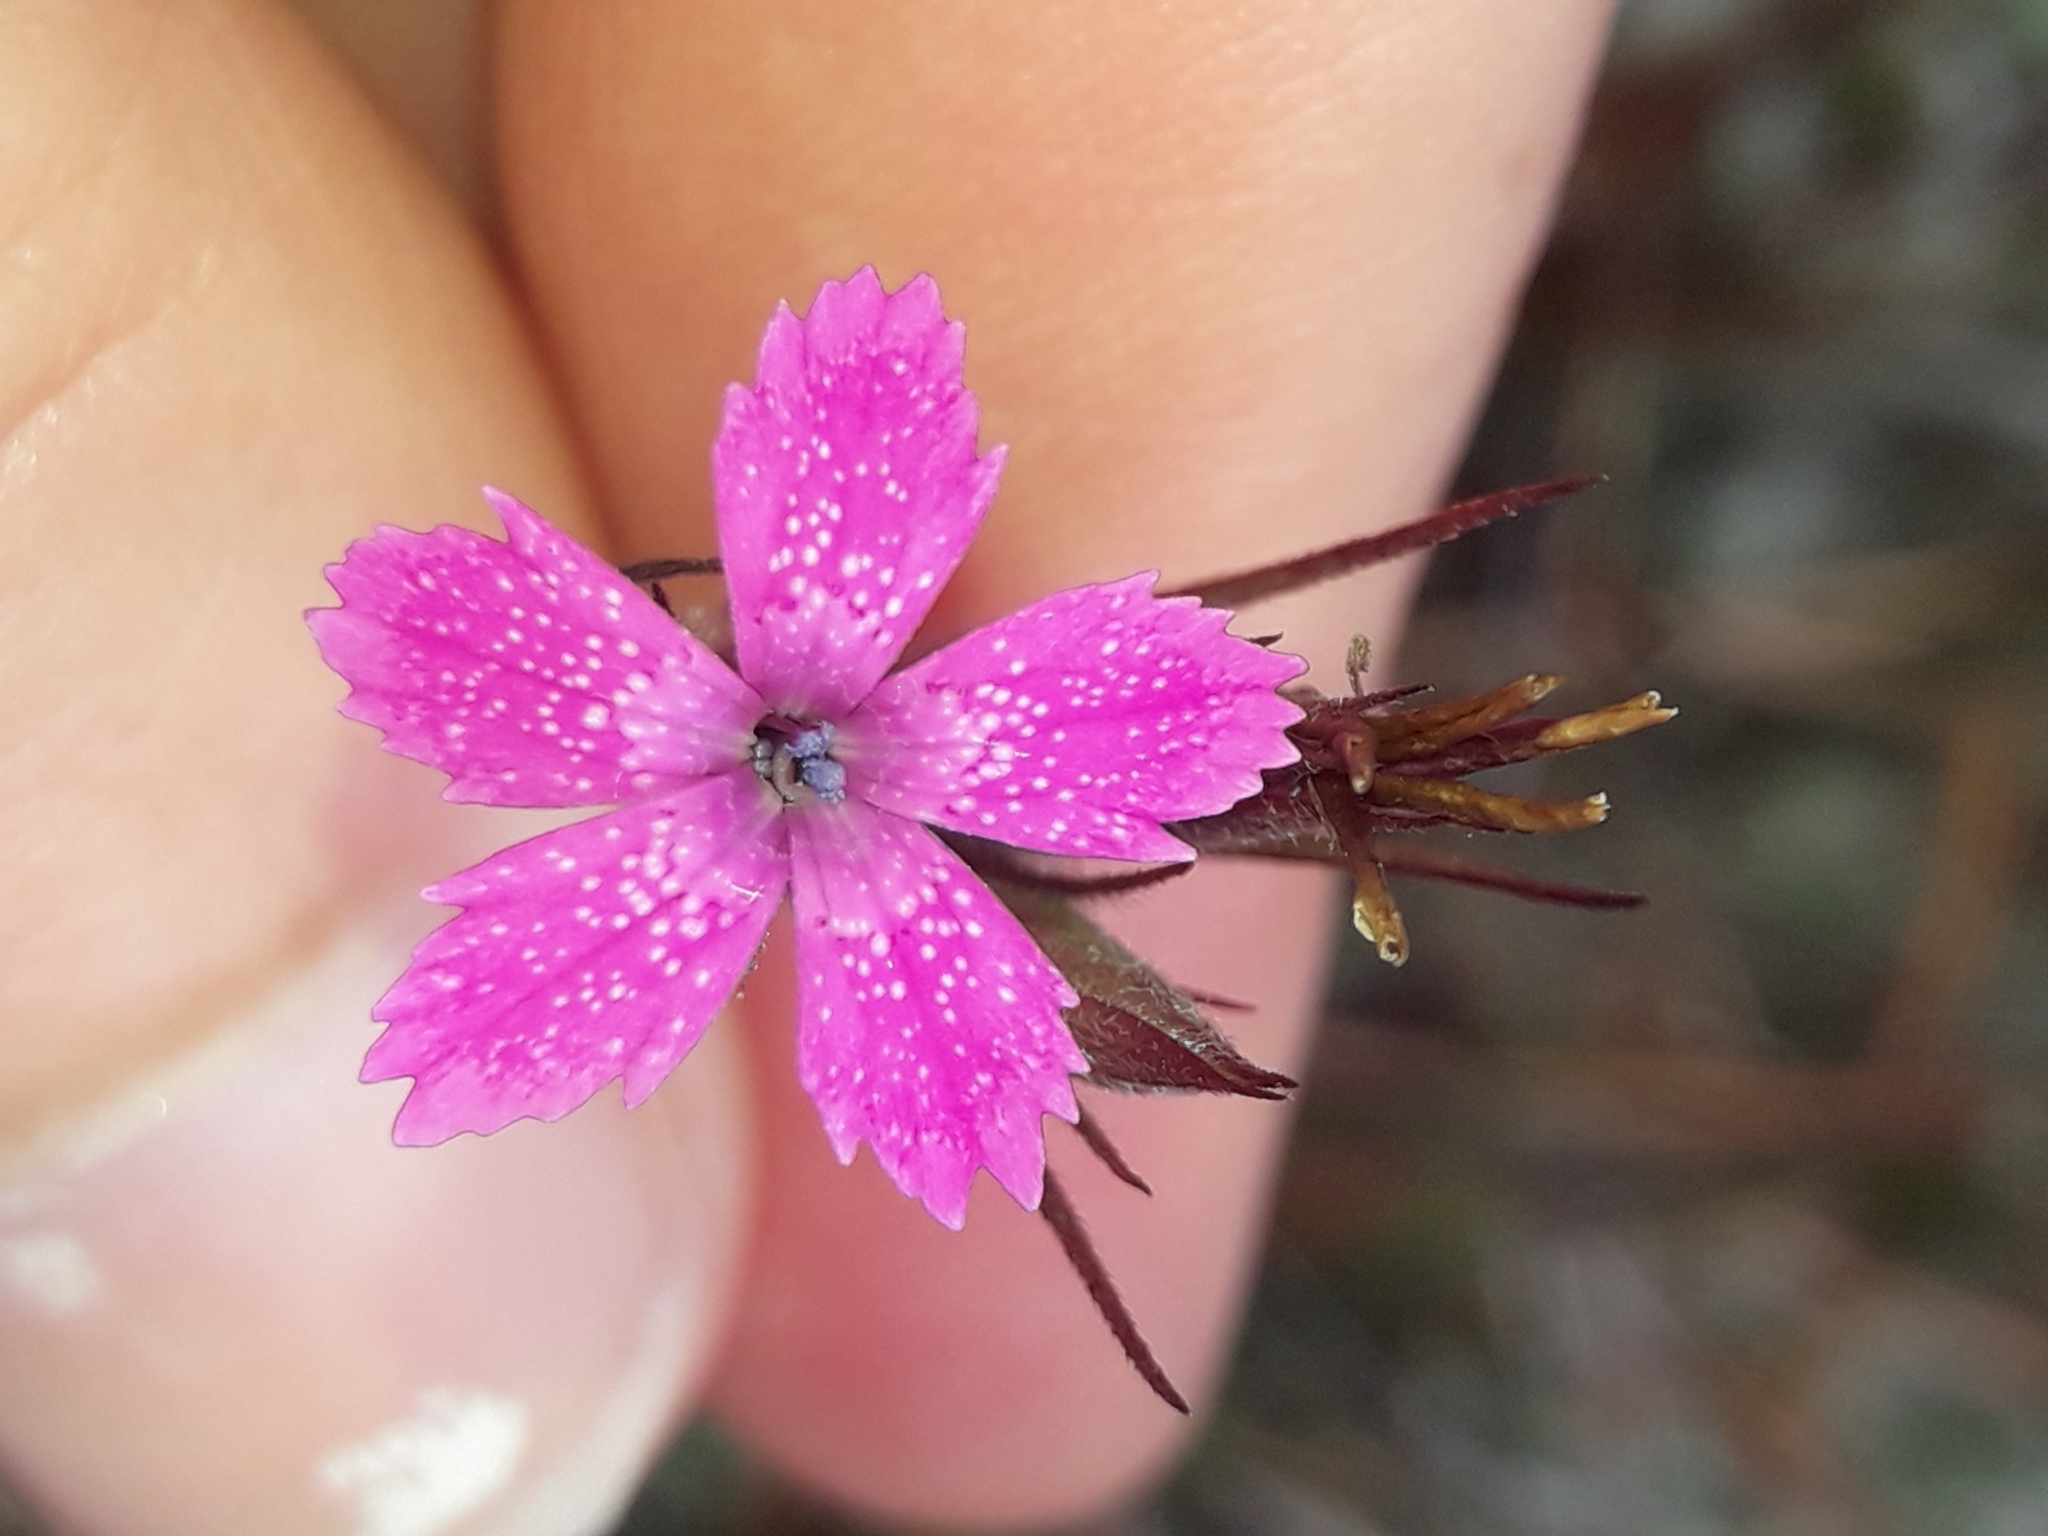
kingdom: Plantae
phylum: Tracheophyta
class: Magnoliopsida
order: Caryophyllales
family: Caryophyllaceae
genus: Dianthus
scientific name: Dianthus armeria
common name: Deptford pink
